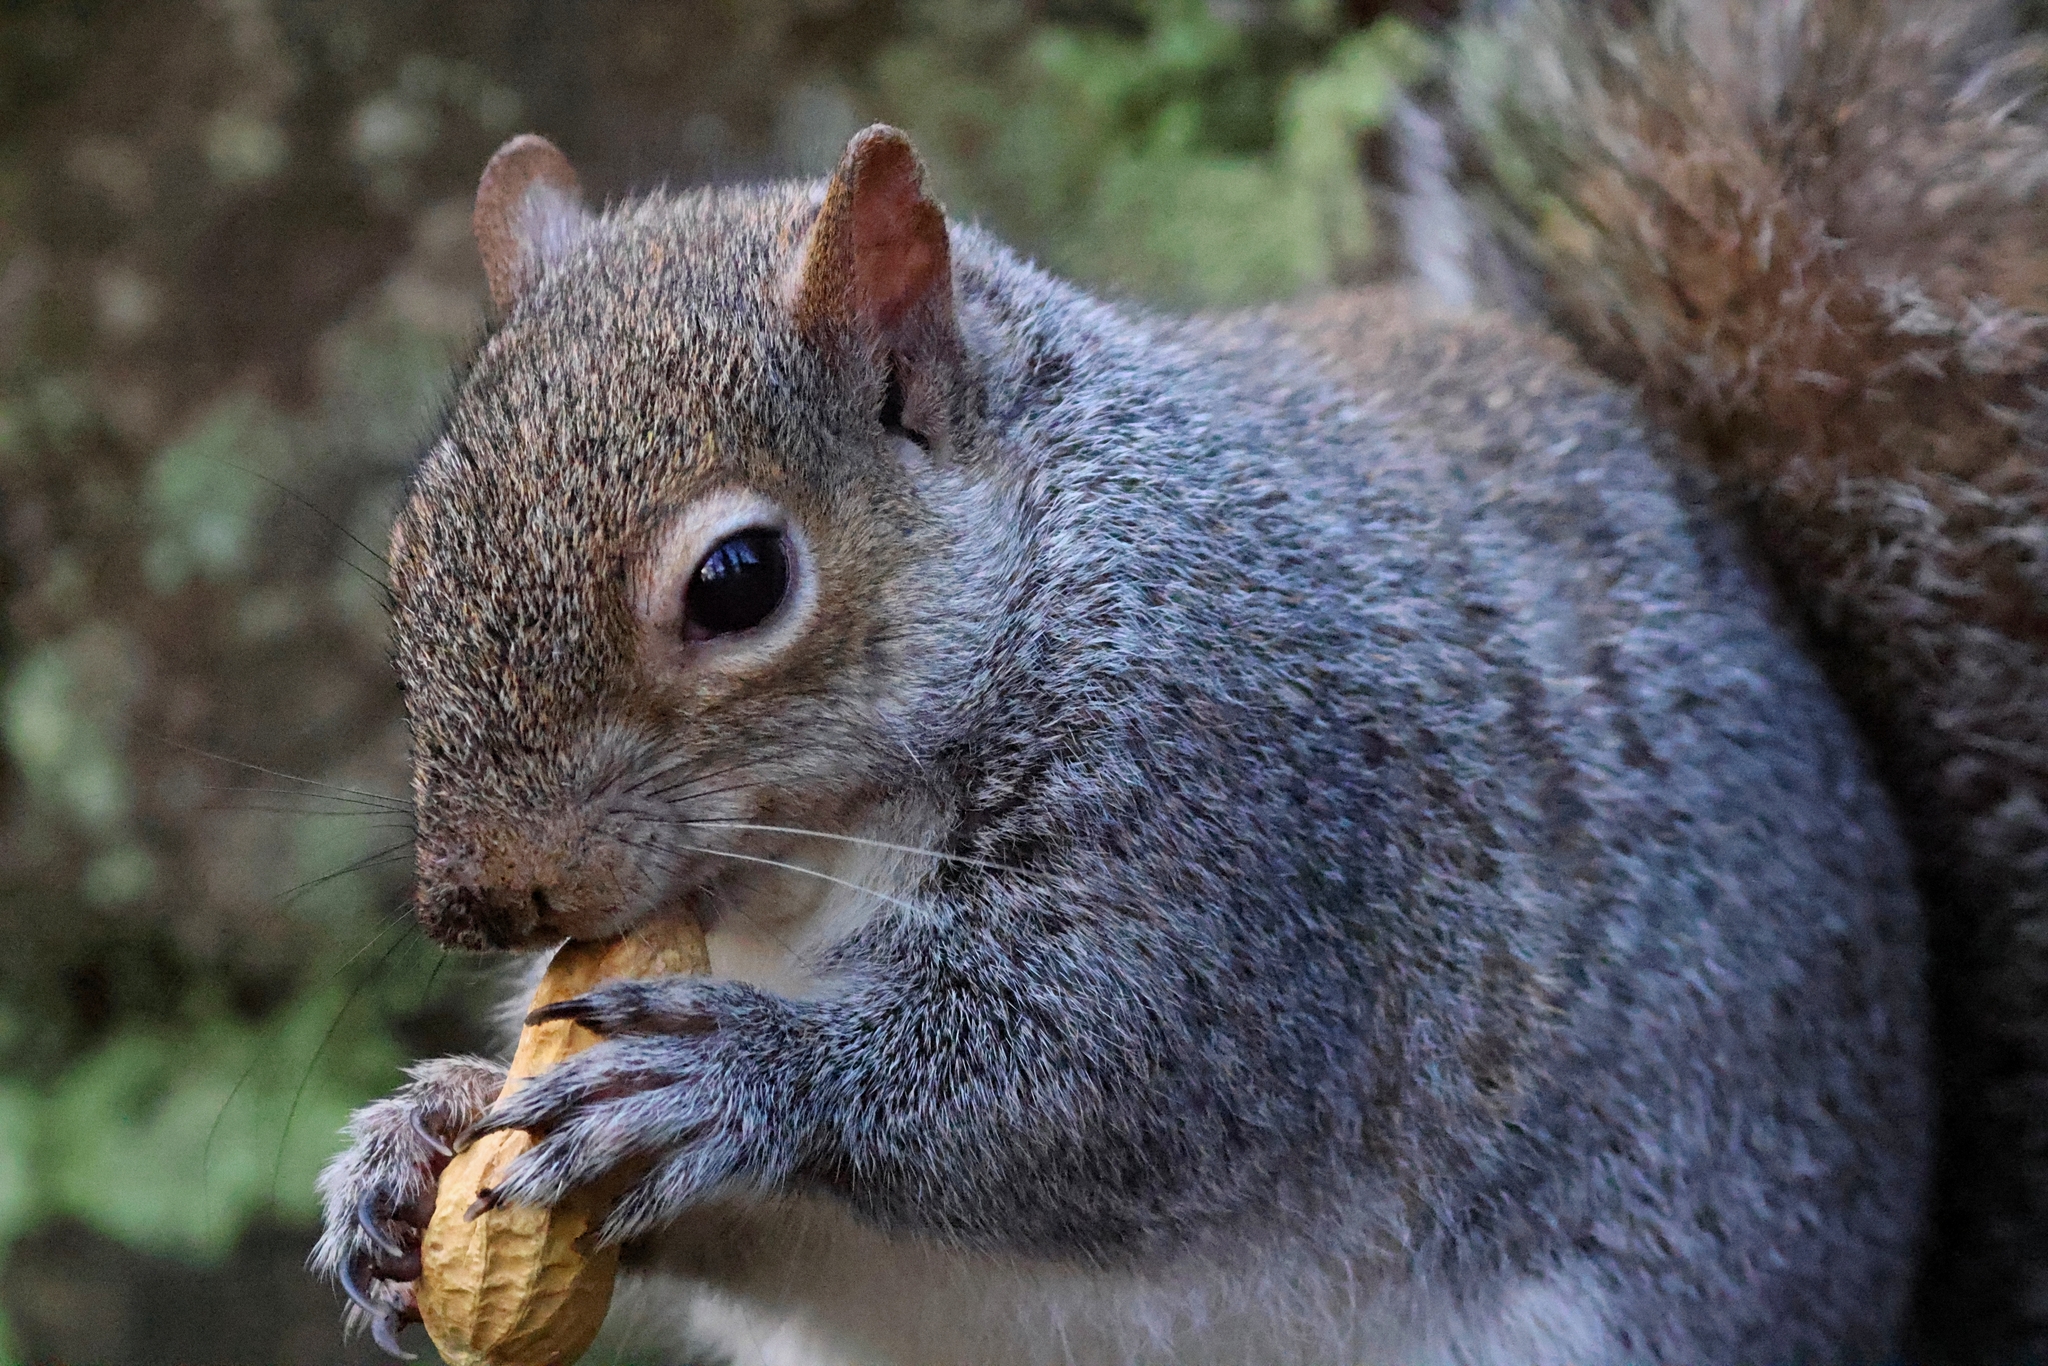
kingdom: Animalia
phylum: Chordata
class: Mammalia
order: Rodentia
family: Sciuridae
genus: Sciurus
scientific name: Sciurus carolinensis
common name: Eastern gray squirrel
